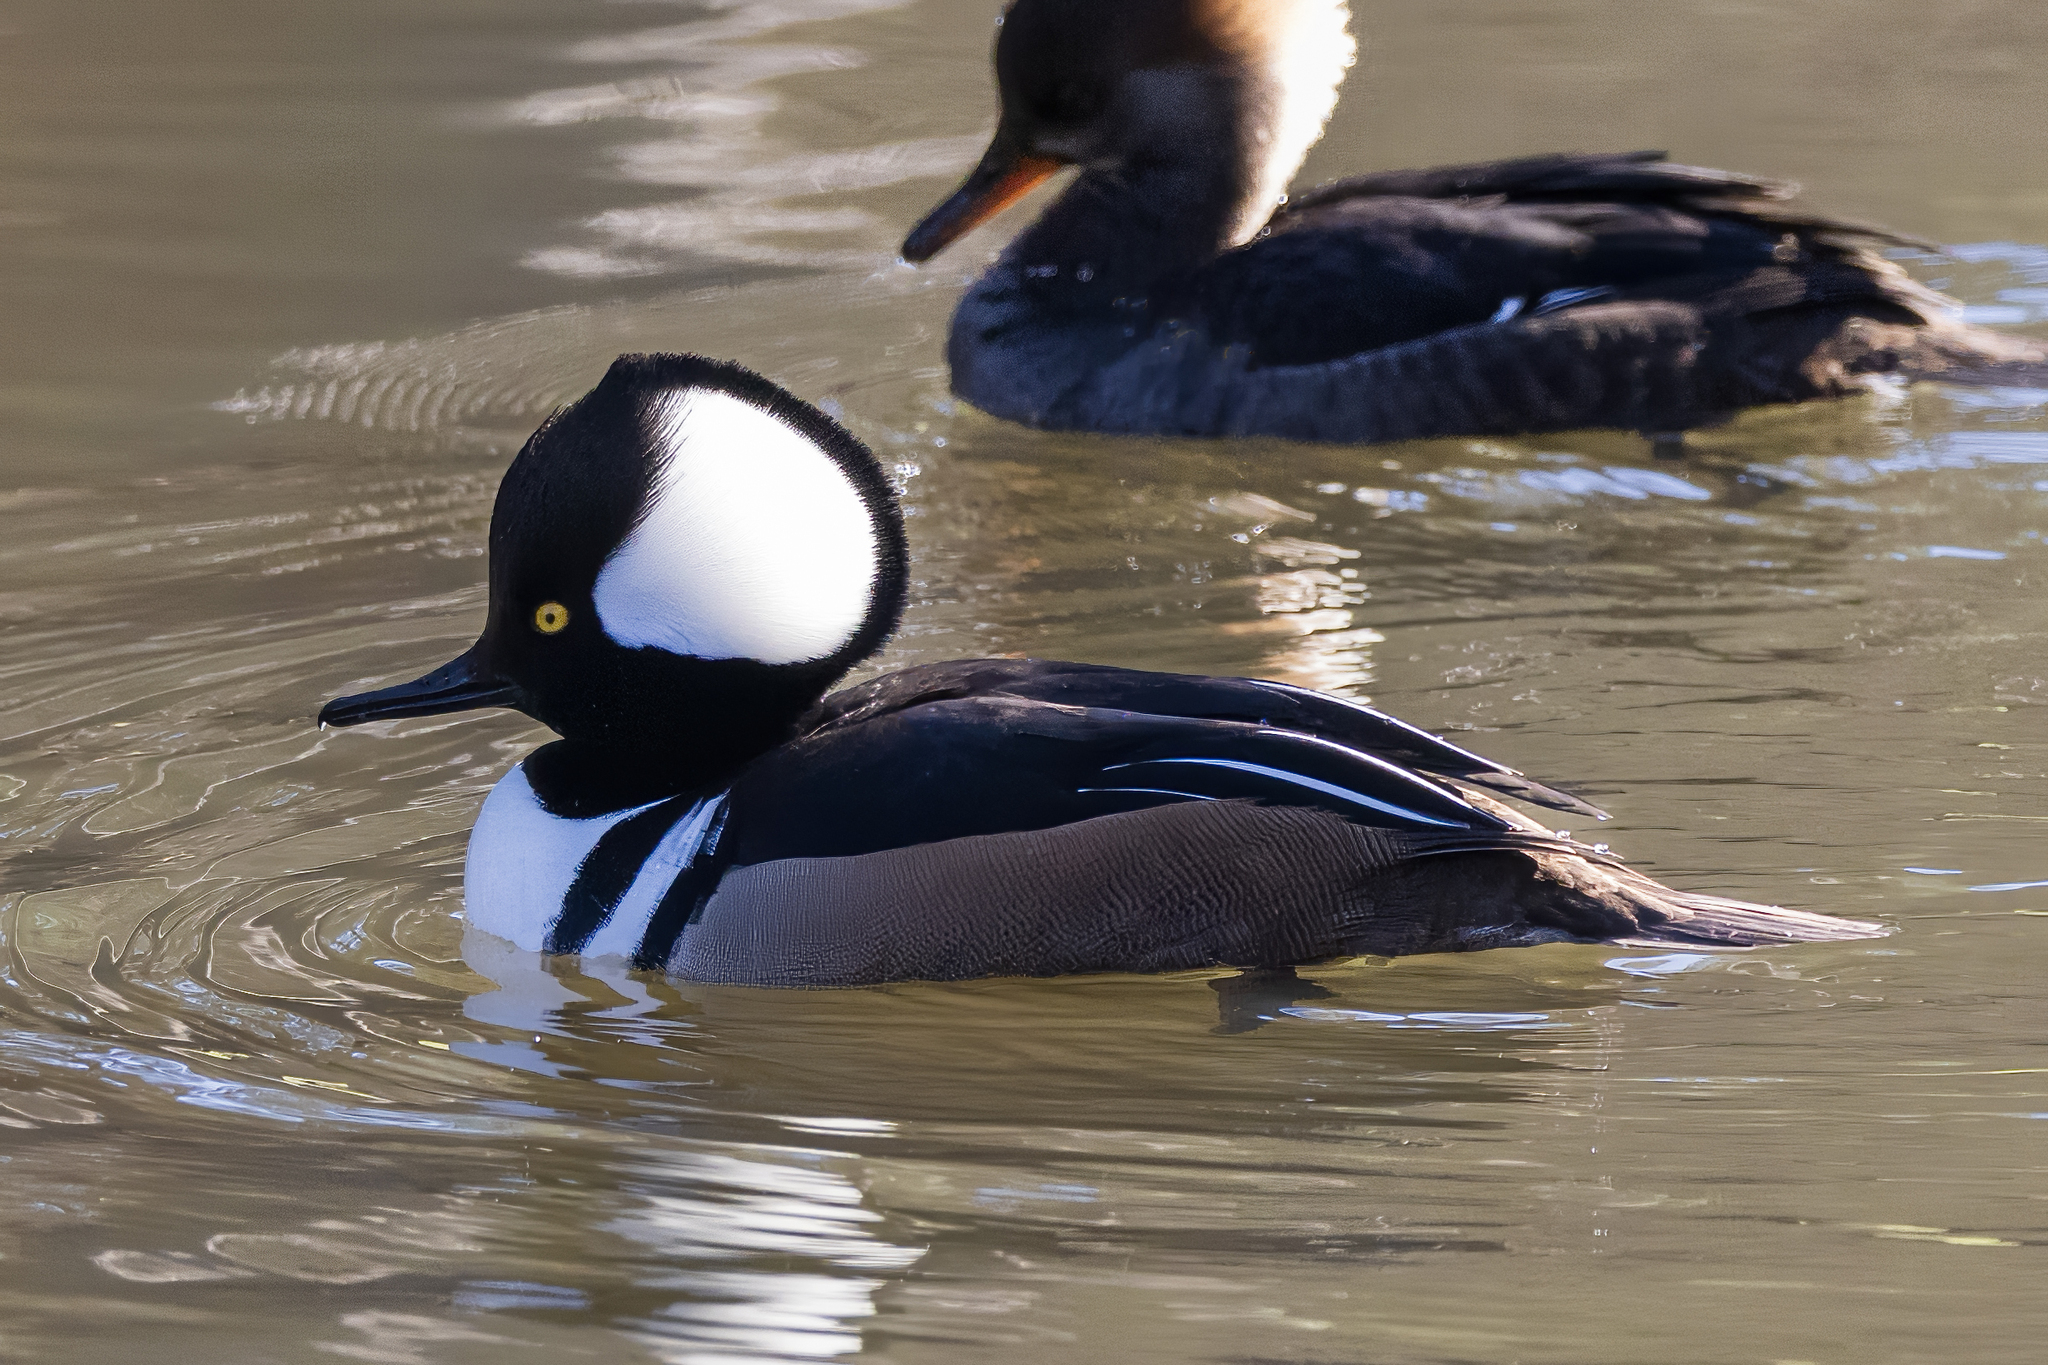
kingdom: Animalia
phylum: Chordata
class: Aves
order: Anseriformes
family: Anatidae
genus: Lophodytes
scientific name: Lophodytes cucullatus
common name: Hooded merganser
